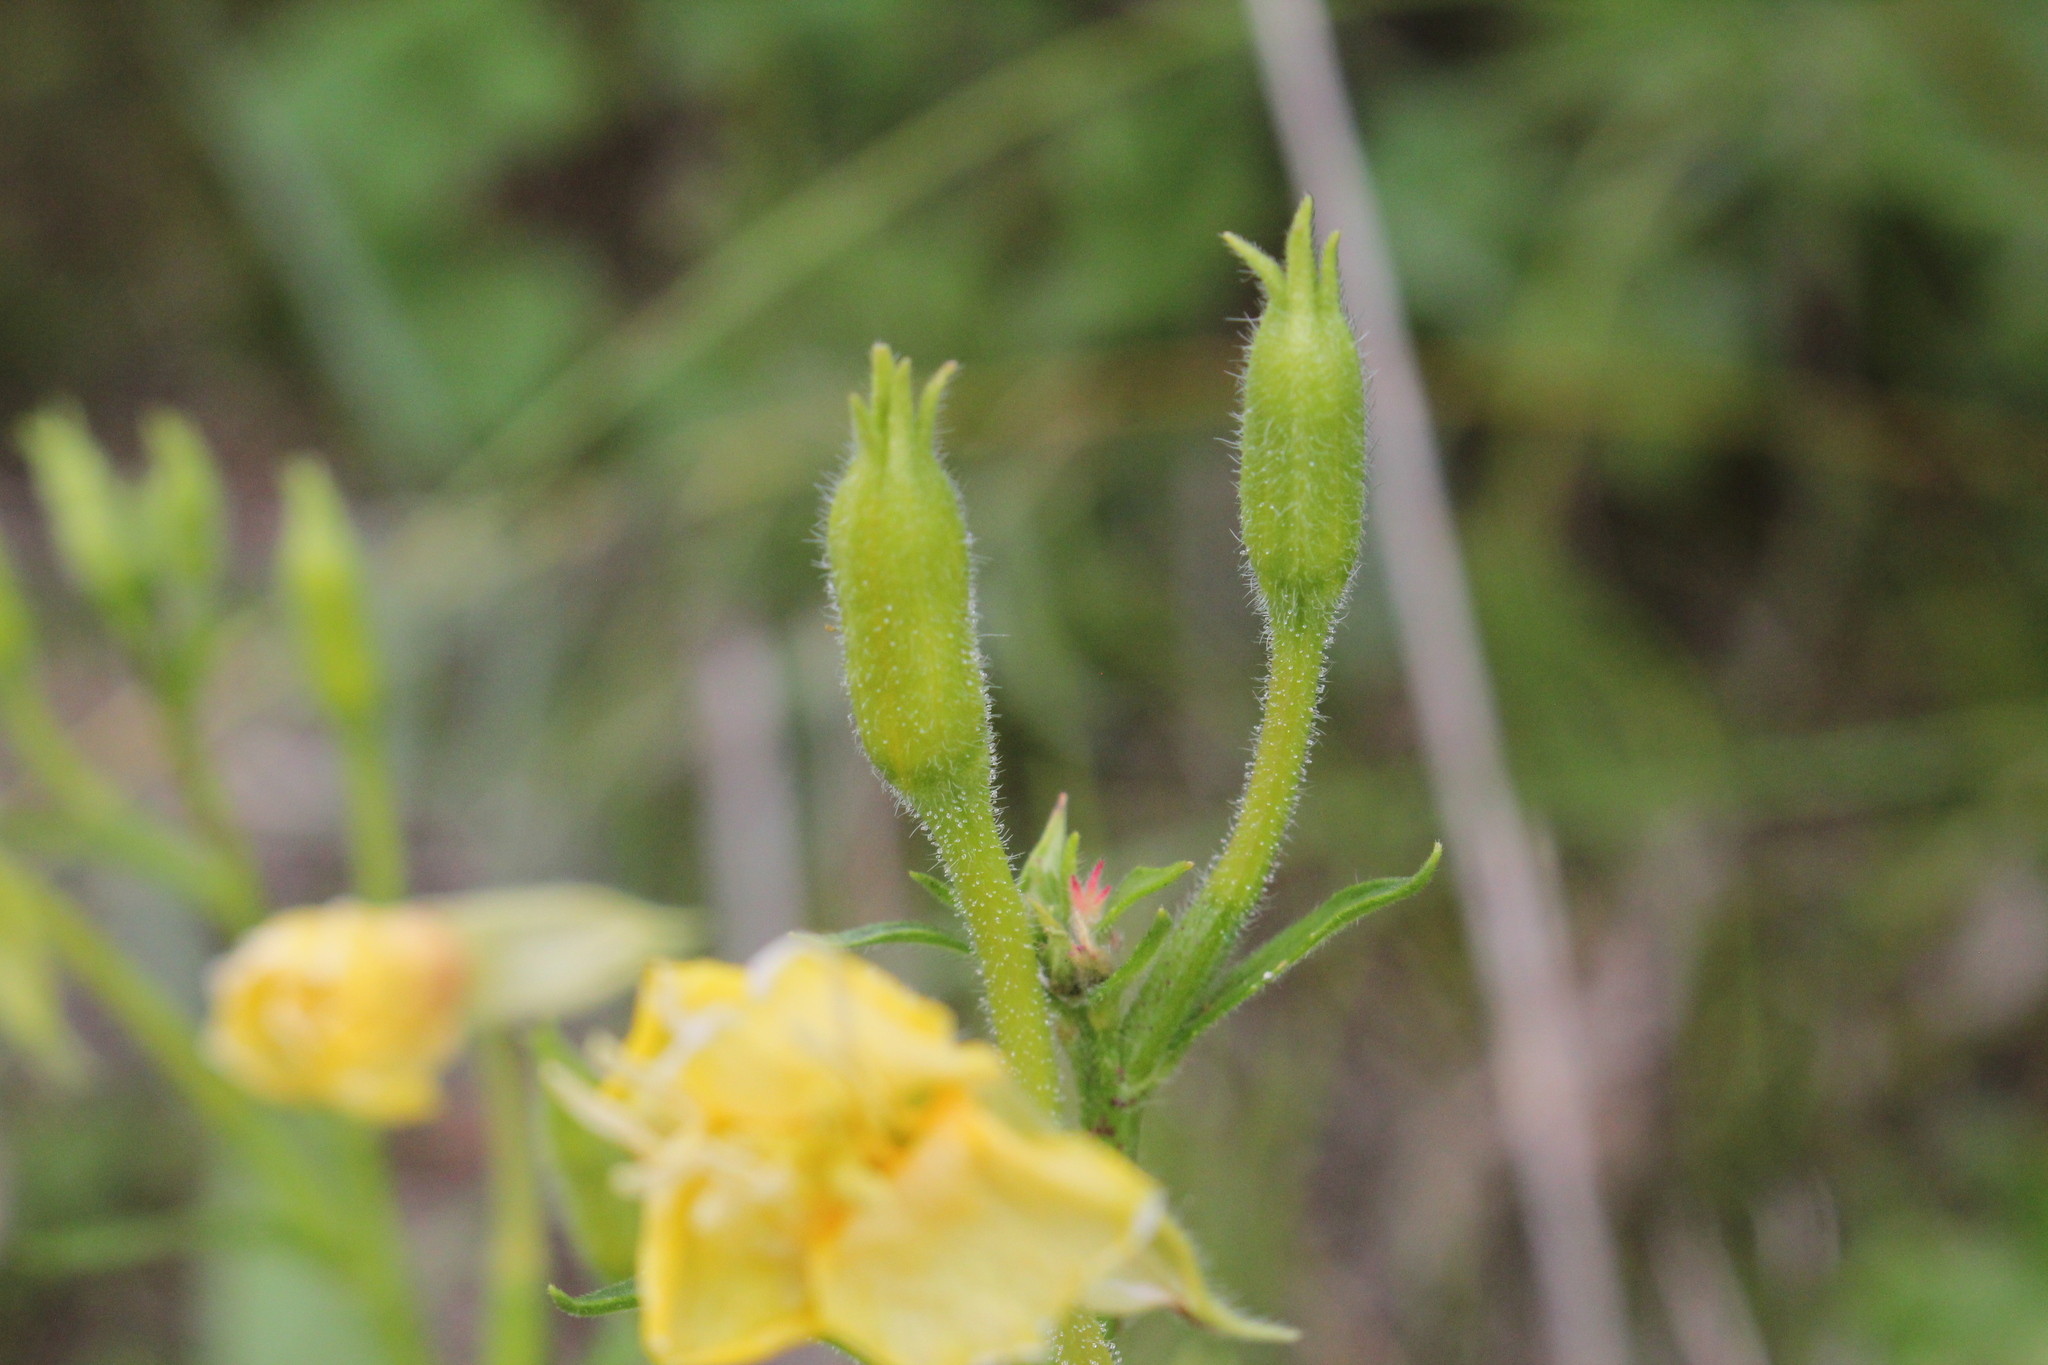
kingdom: Plantae
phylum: Tracheophyta
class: Magnoliopsida
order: Myrtales
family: Onagraceae
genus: Oenothera
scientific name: Oenothera parviflora
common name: Least evening-primrose
